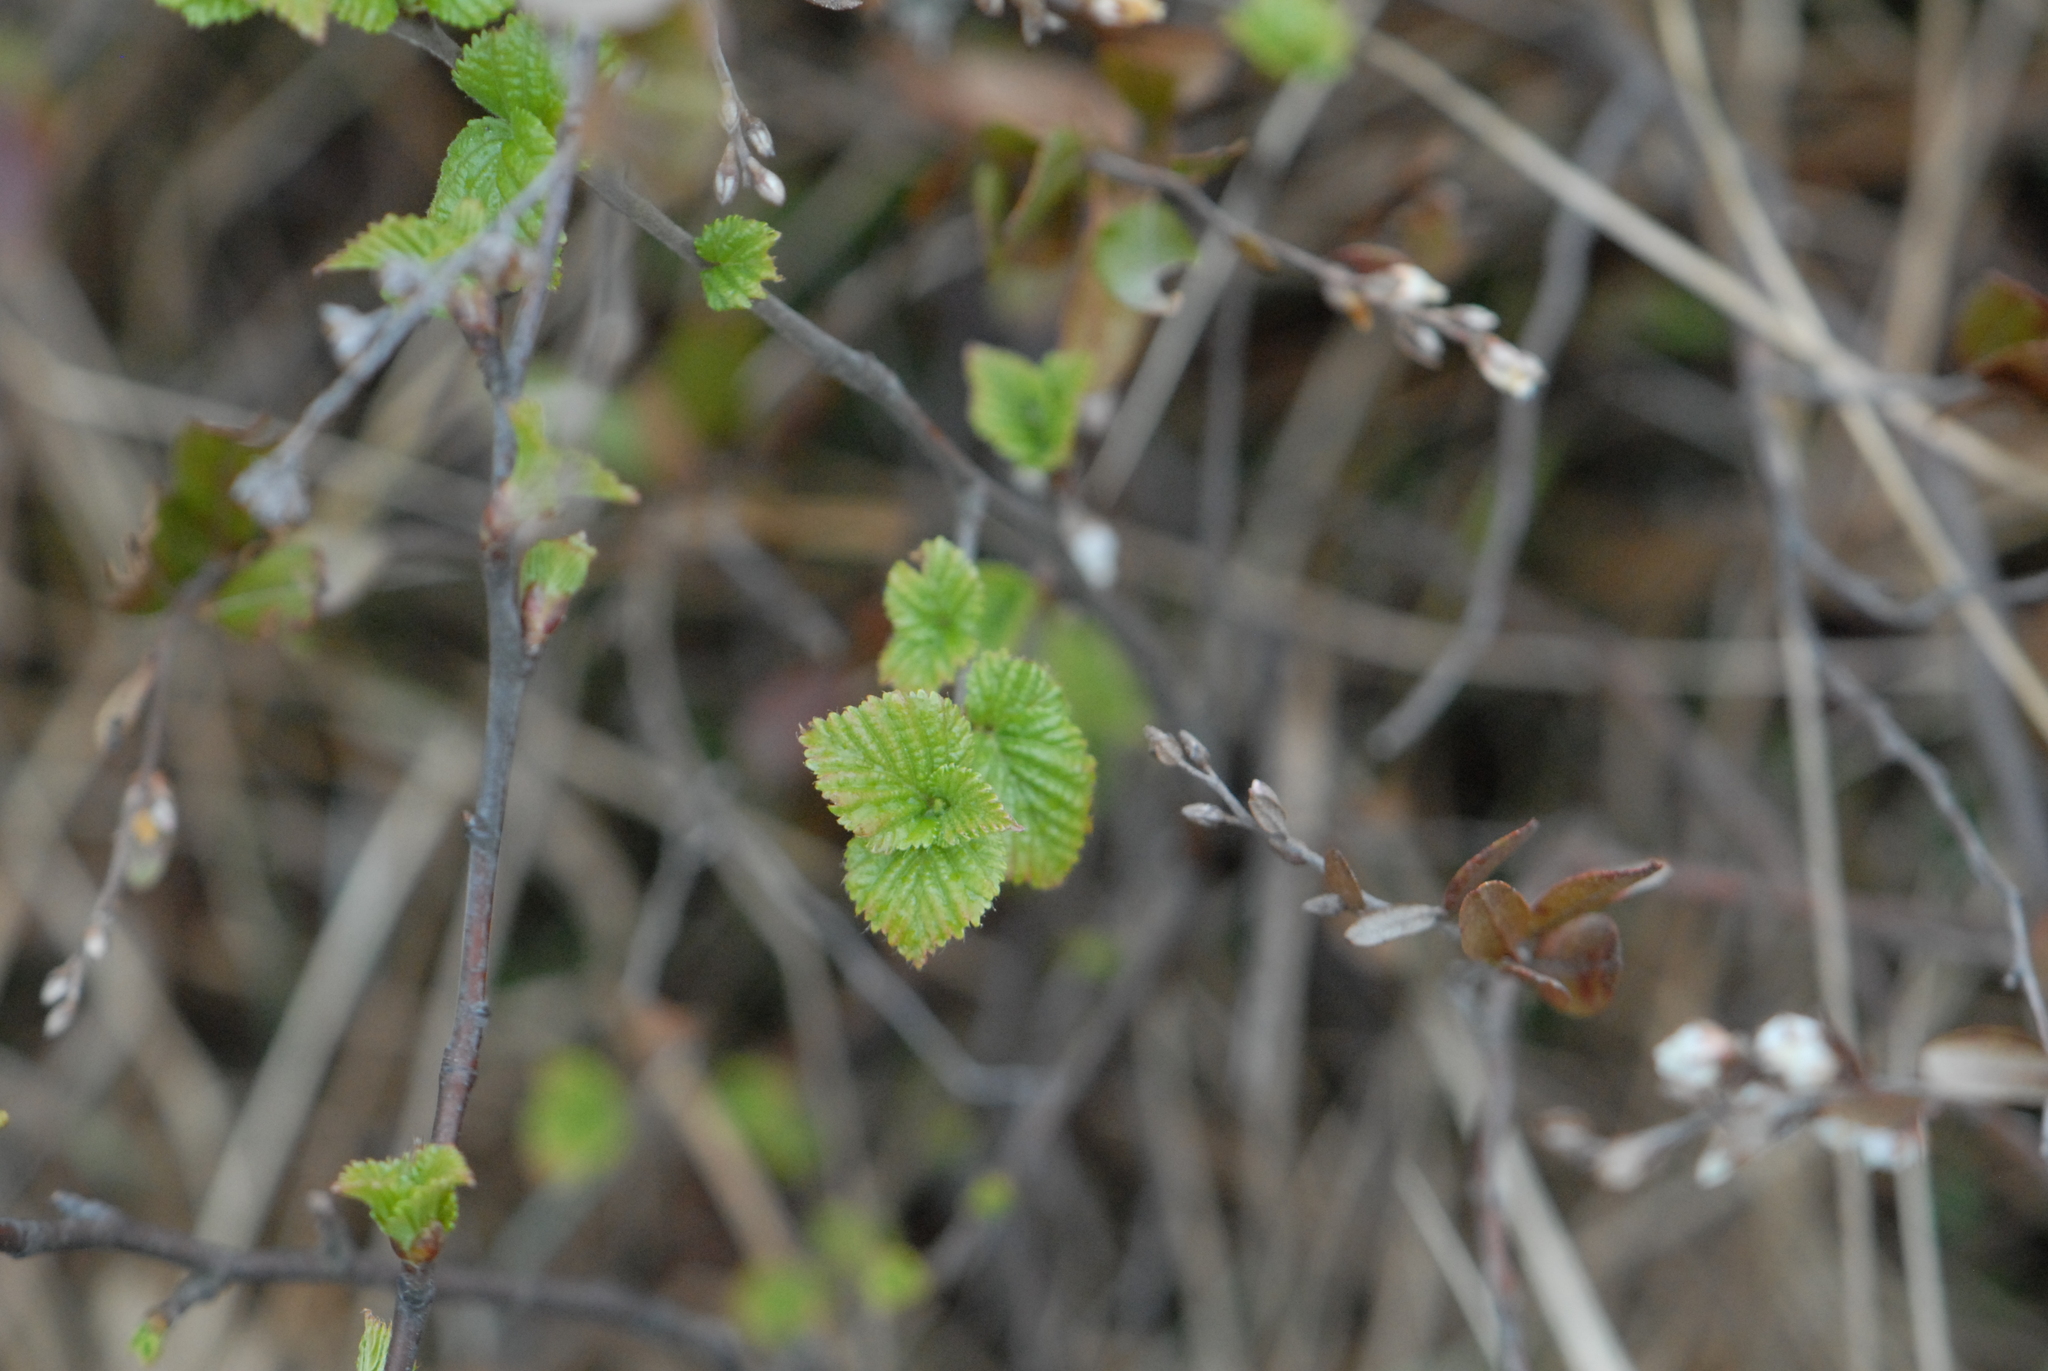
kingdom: Plantae
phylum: Tracheophyta
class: Magnoliopsida
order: Fagales
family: Betulaceae
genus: Betula
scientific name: Betula pubescens
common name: Downy birch
